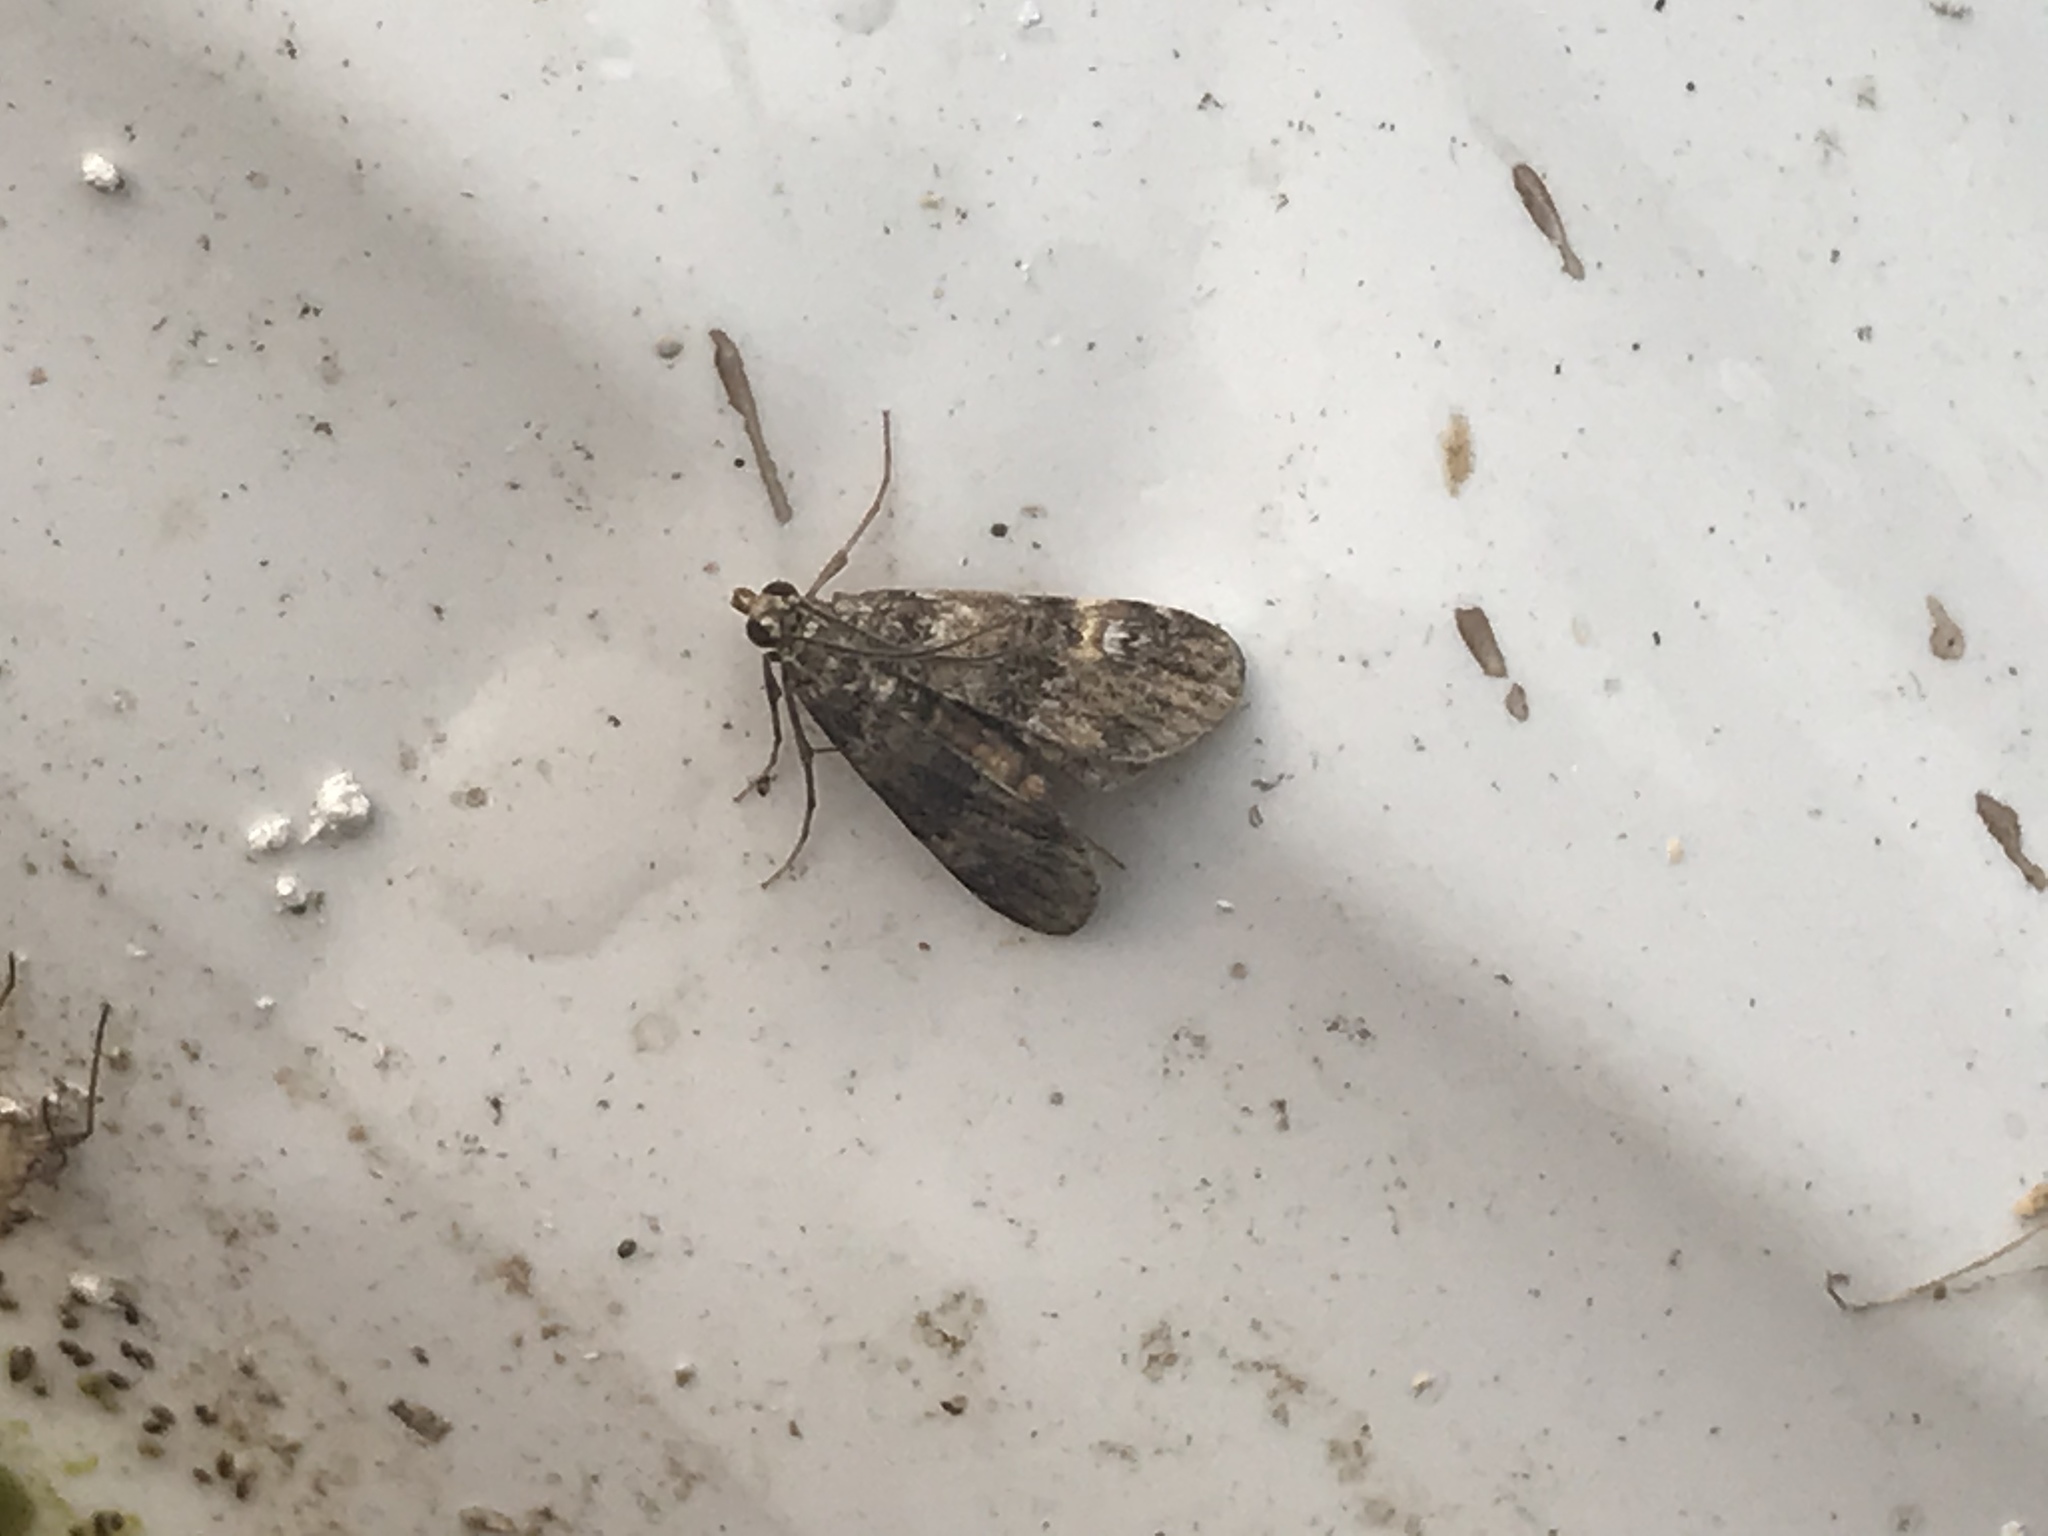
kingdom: Animalia
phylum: Arthropoda
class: Insecta
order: Lepidoptera
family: Crambidae
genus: Elophila
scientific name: Elophila obliteralis
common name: Waterlily leafcutter moth
